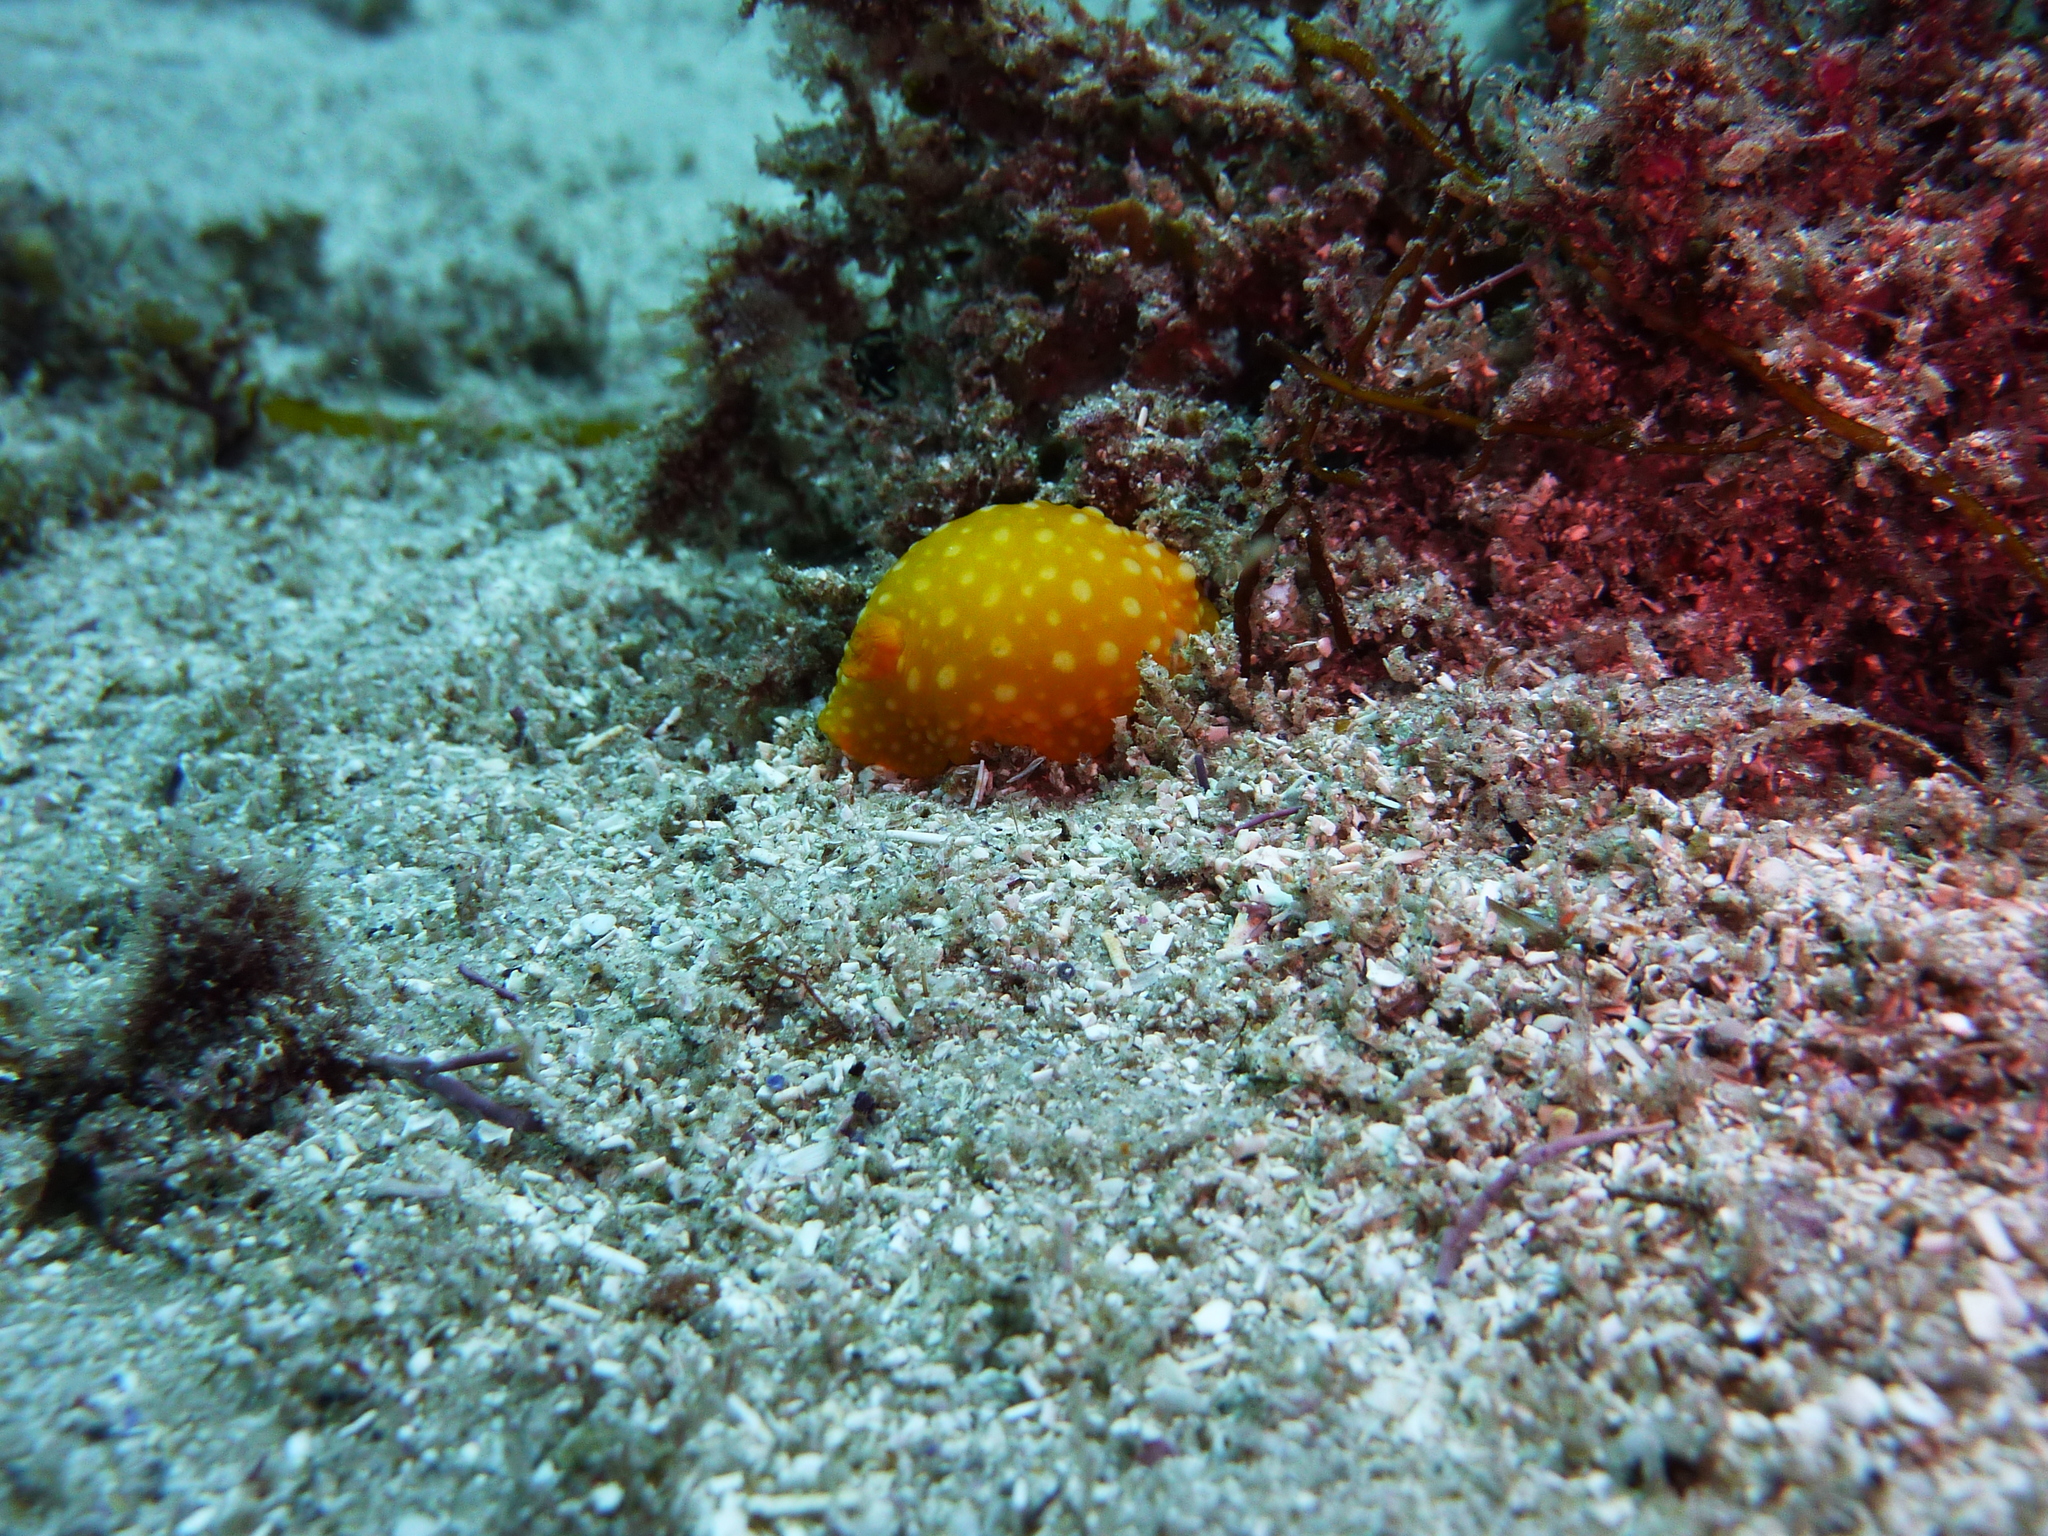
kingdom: Animalia
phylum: Mollusca
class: Gastropoda
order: Nudibranchia
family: Dorididae
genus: Doris
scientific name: Doris chrysoderma
